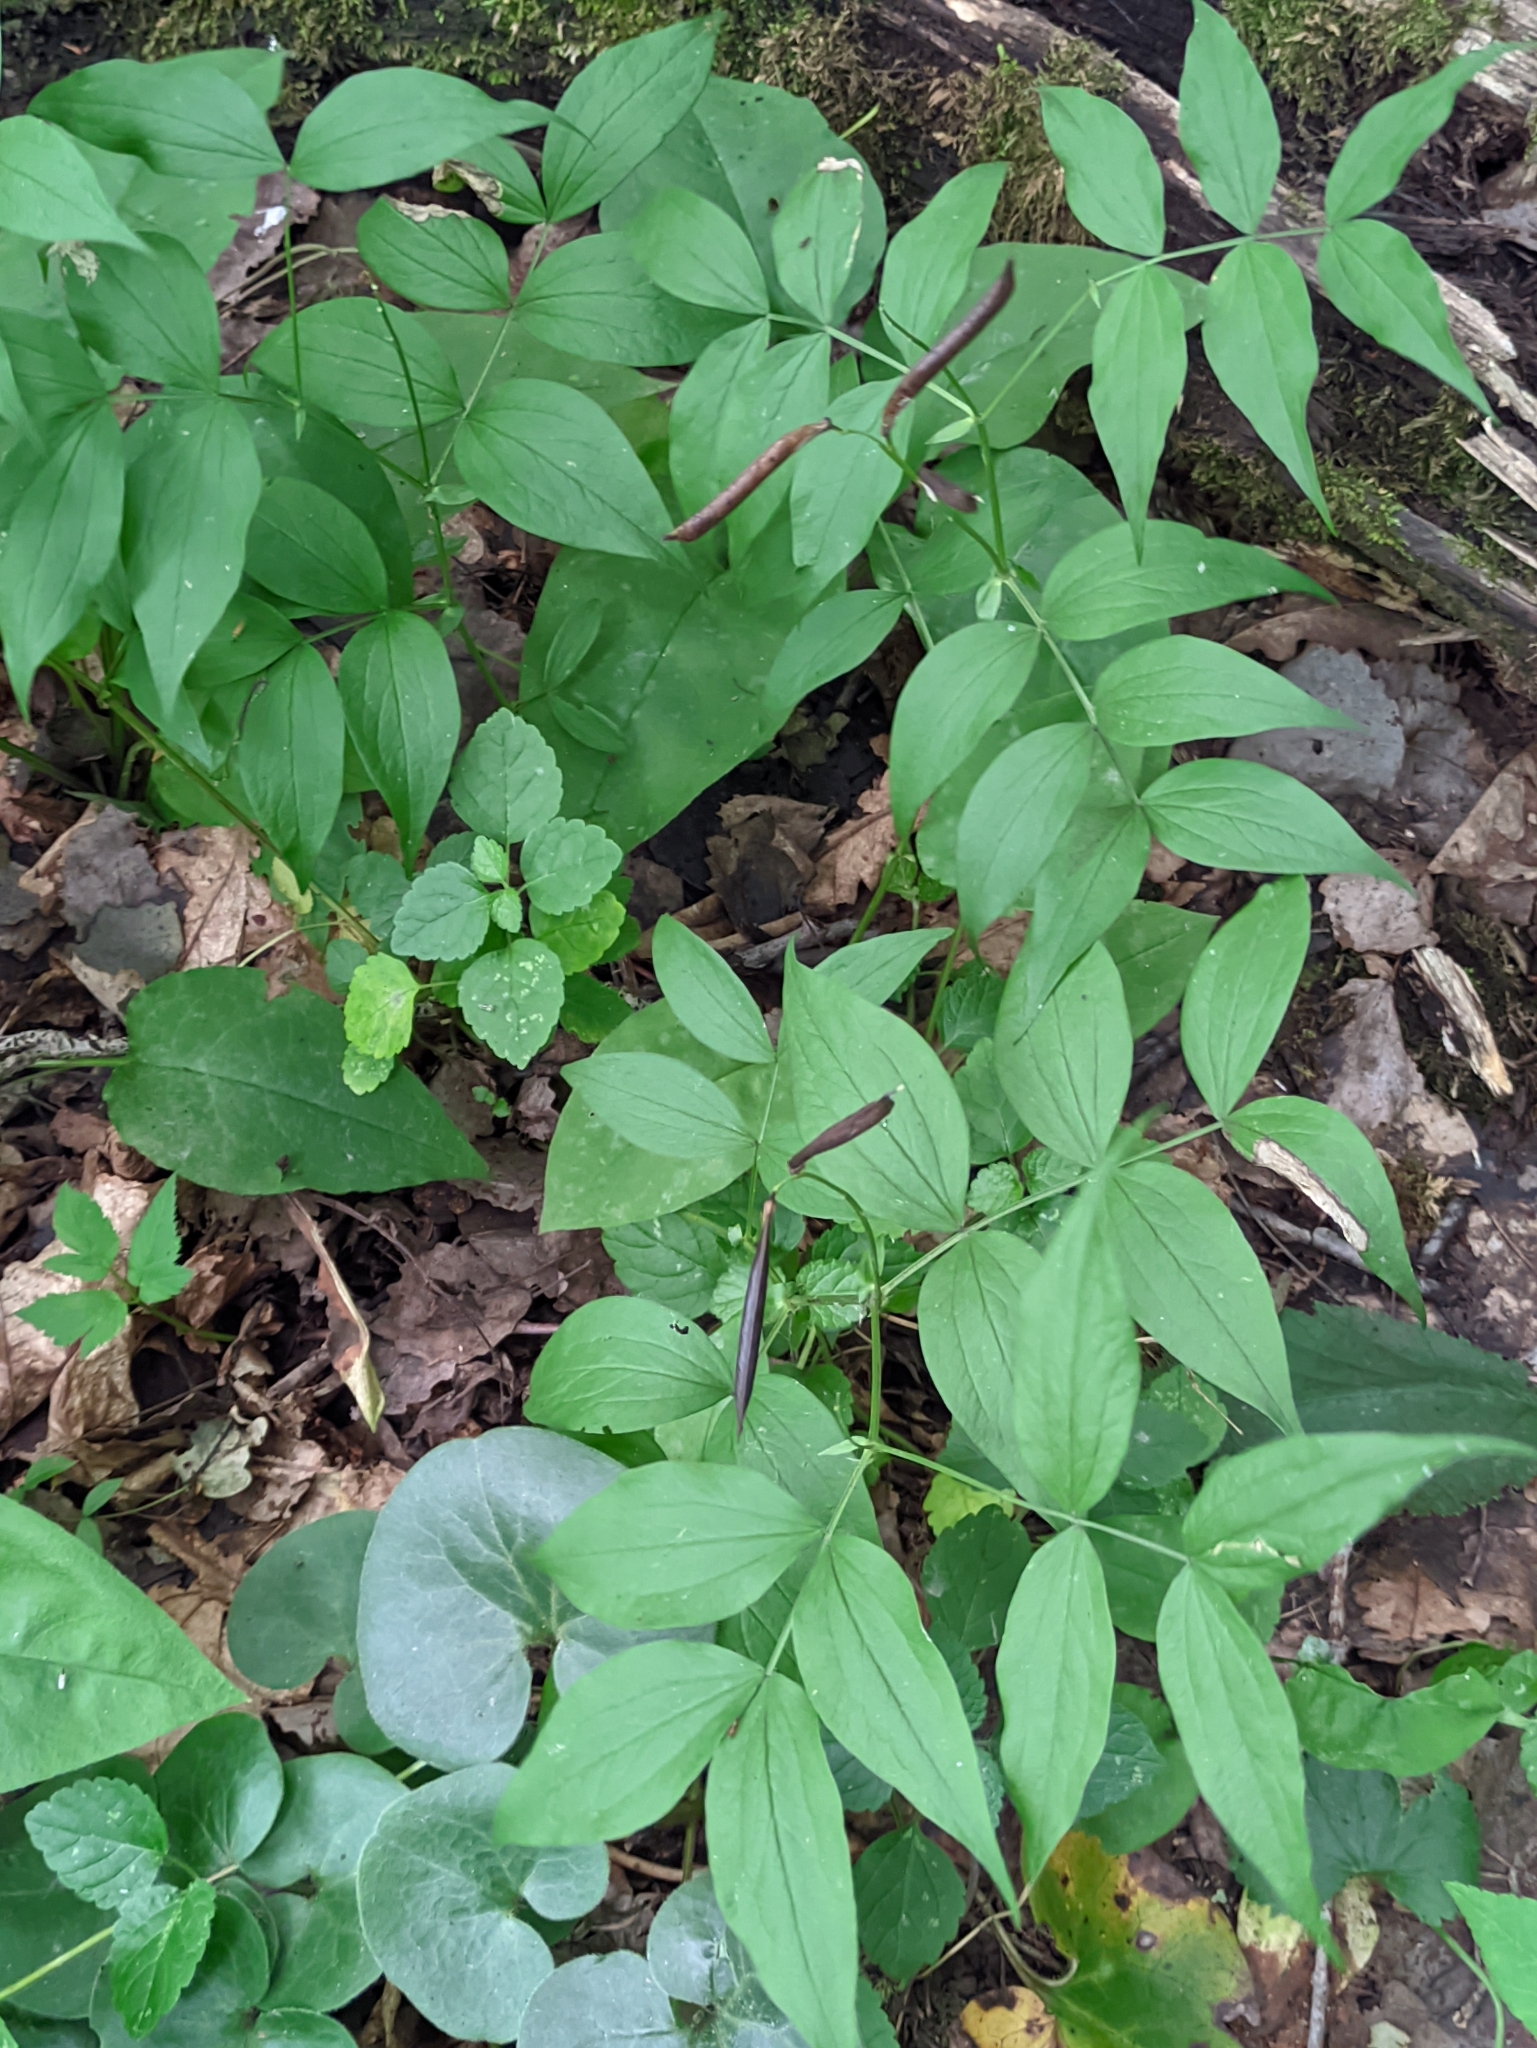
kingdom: Plantae
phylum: Tracheophyta
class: Magnoliopsida
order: Fabales
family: Fabaceae
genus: Lathyrus
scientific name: Lathyrus vernus
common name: Spring pea
